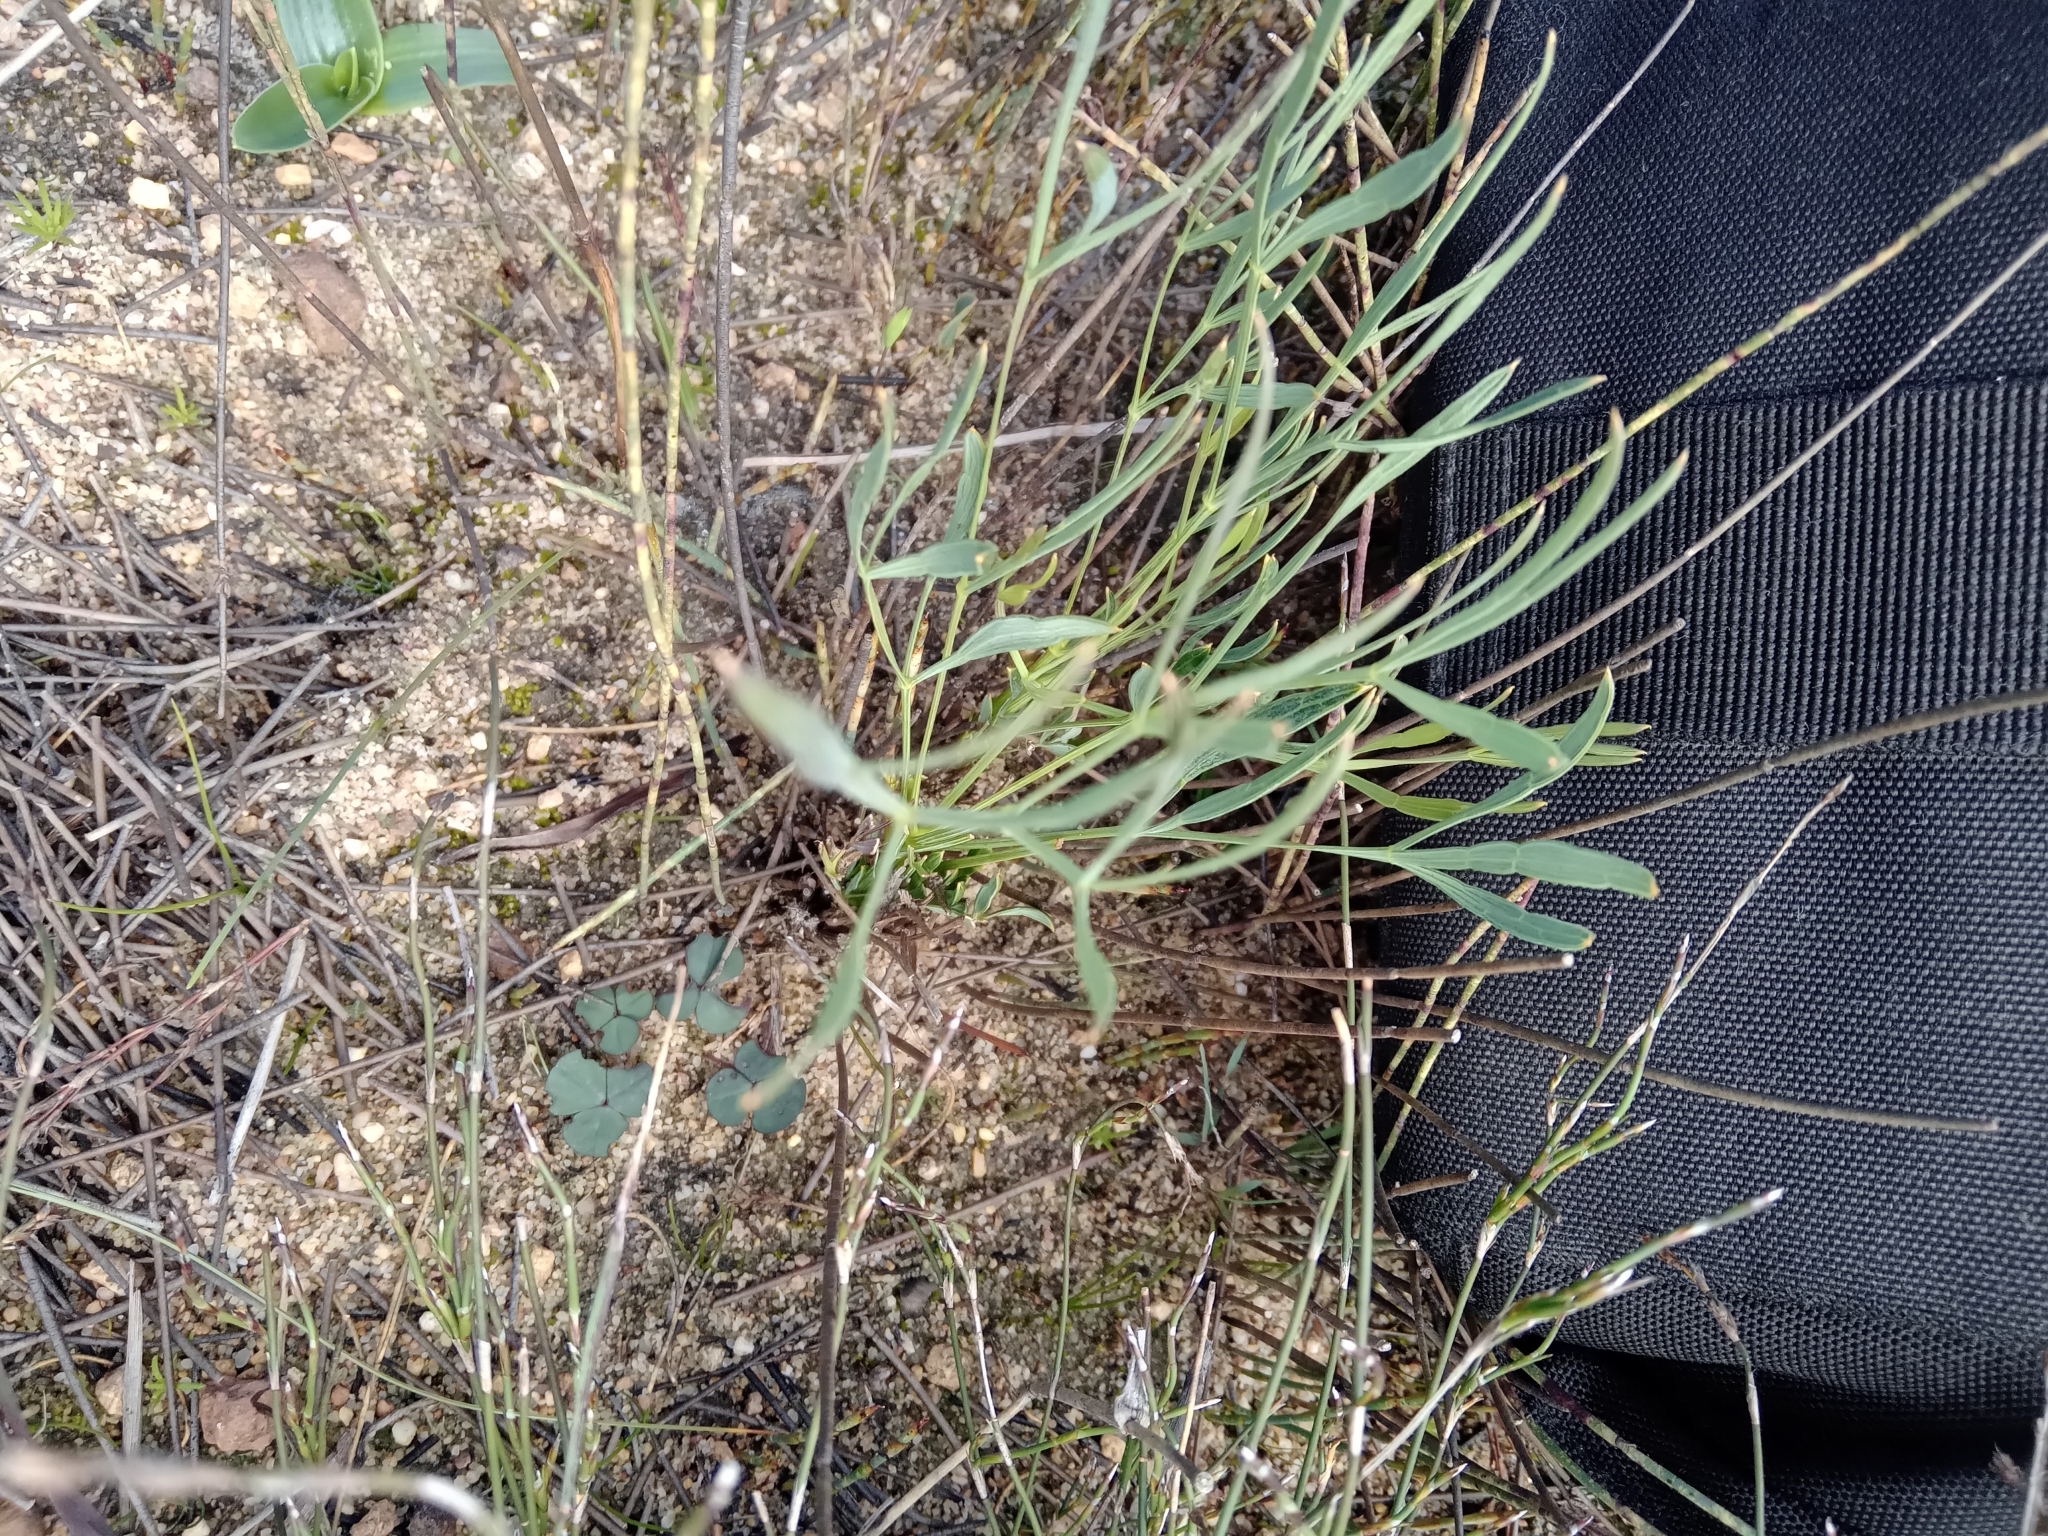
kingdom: Plantae
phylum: Tracheophyta
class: Magnoliopsida
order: Apiales
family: Apiaceae
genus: Annesorhiza
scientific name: Annesorhiza articulata
